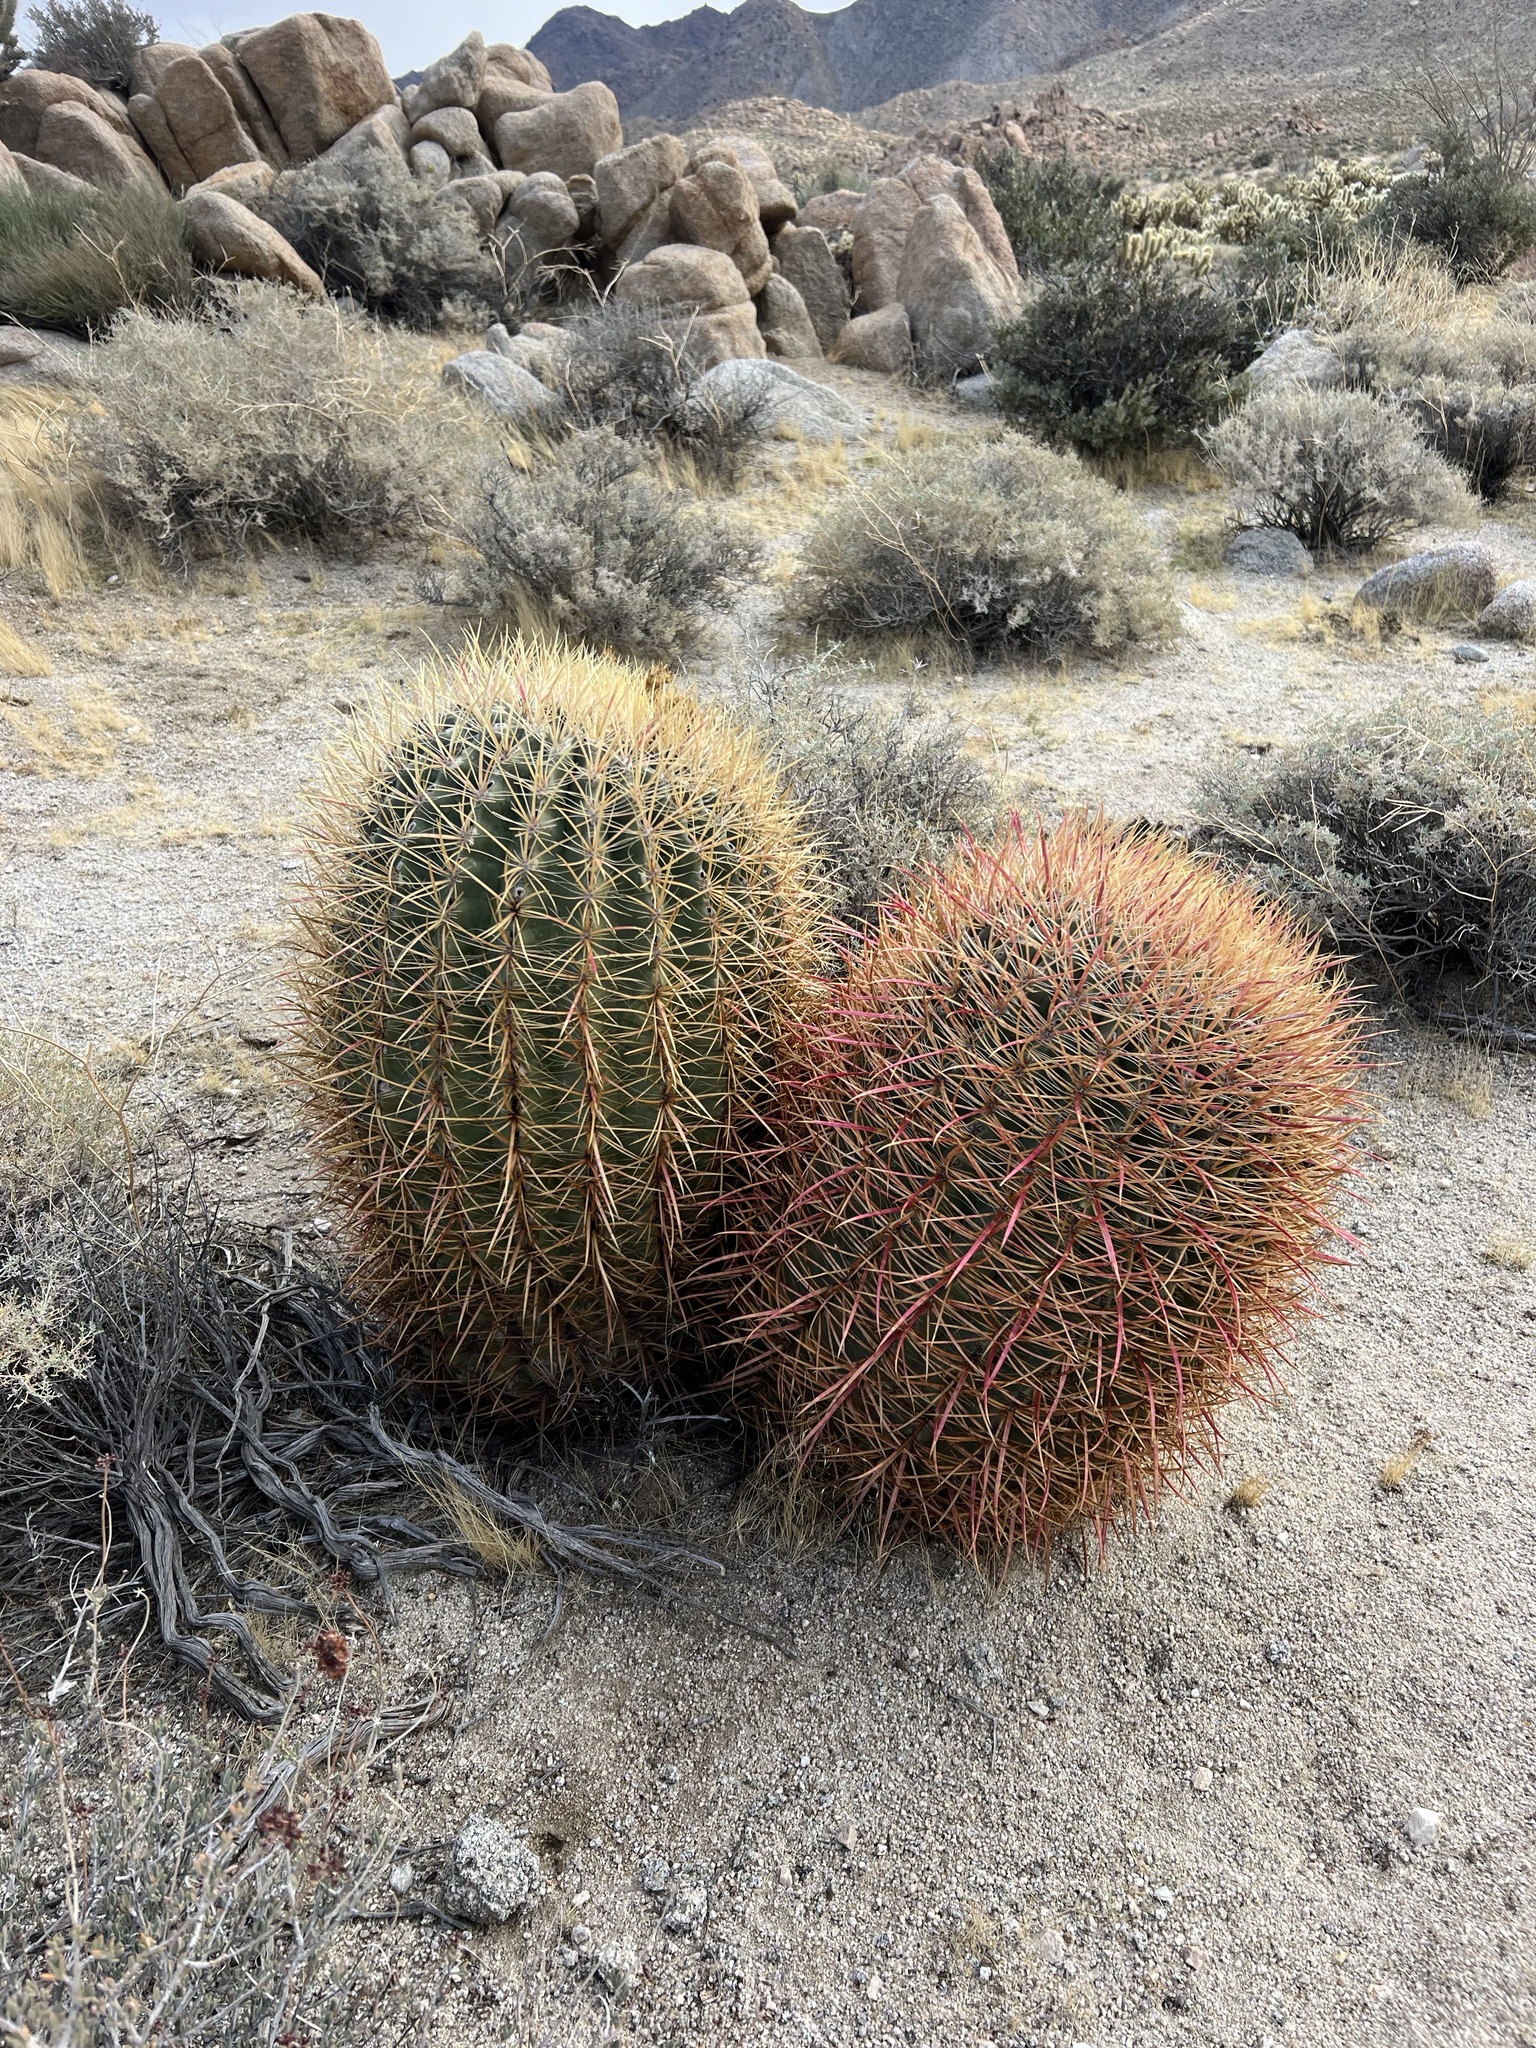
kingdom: Plantae
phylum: Tracheophyta
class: Magnoliopsida
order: Caryophyllales
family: Cactaceae
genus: Ferocactus
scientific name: Ferocactus cylindraceus
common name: California barrel cactus
